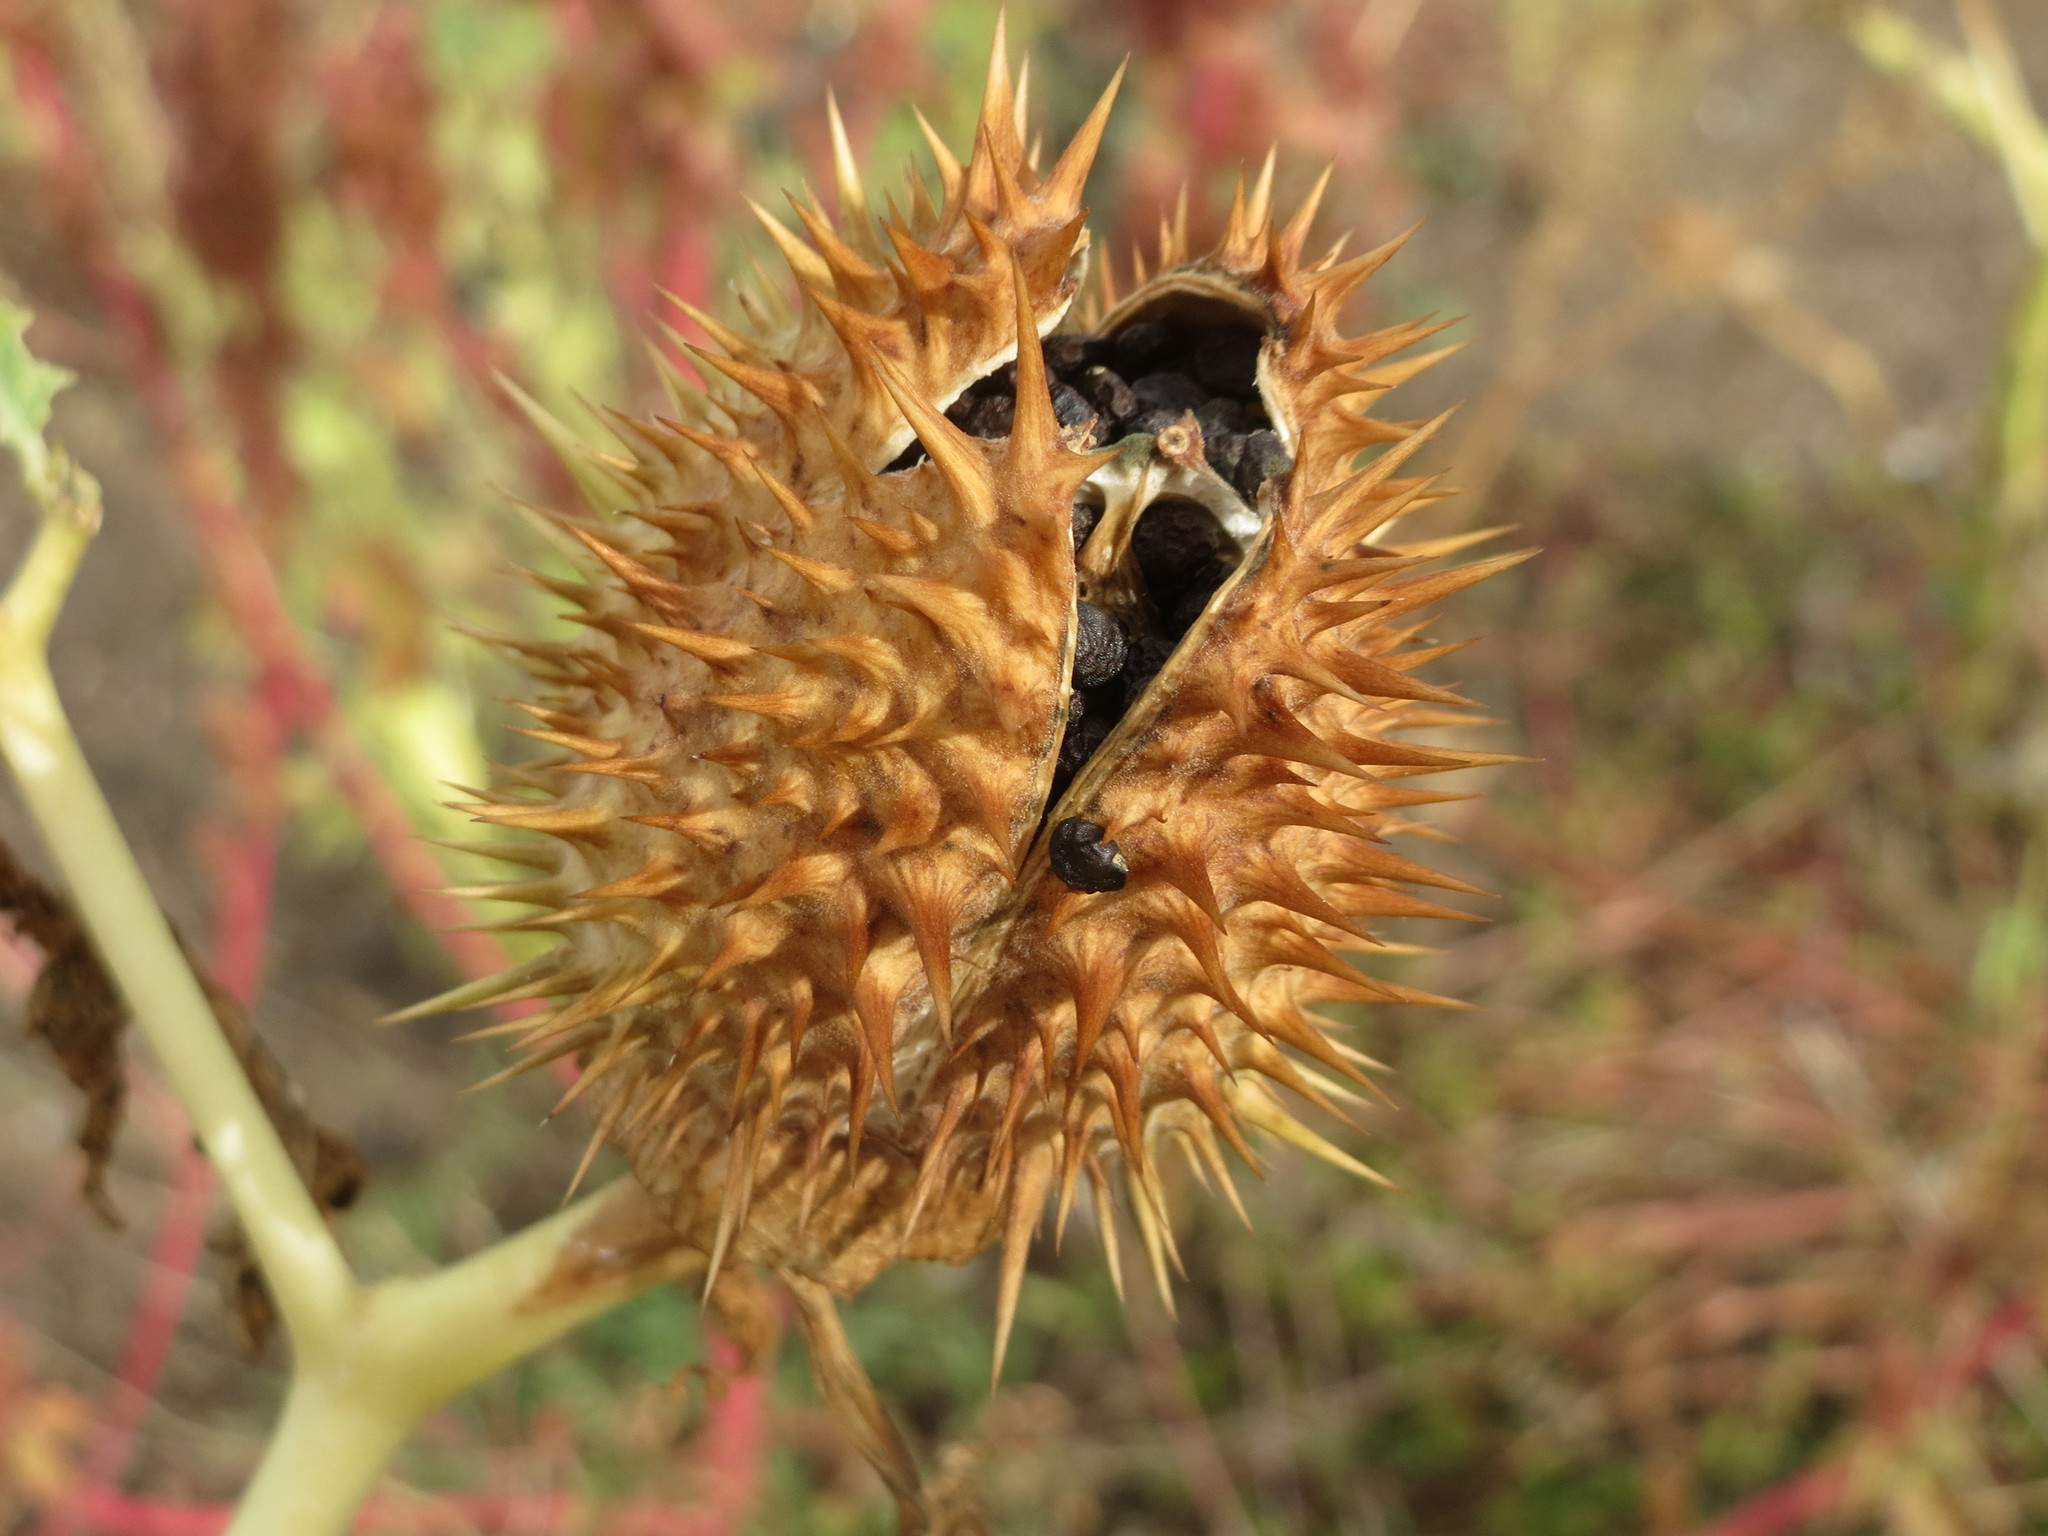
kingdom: Plantae
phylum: Tracheophyta
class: Magnoliopsida
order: Solanales
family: Solanaceae
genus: Datura
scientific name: Datura stramonium
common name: Thorn-apple
